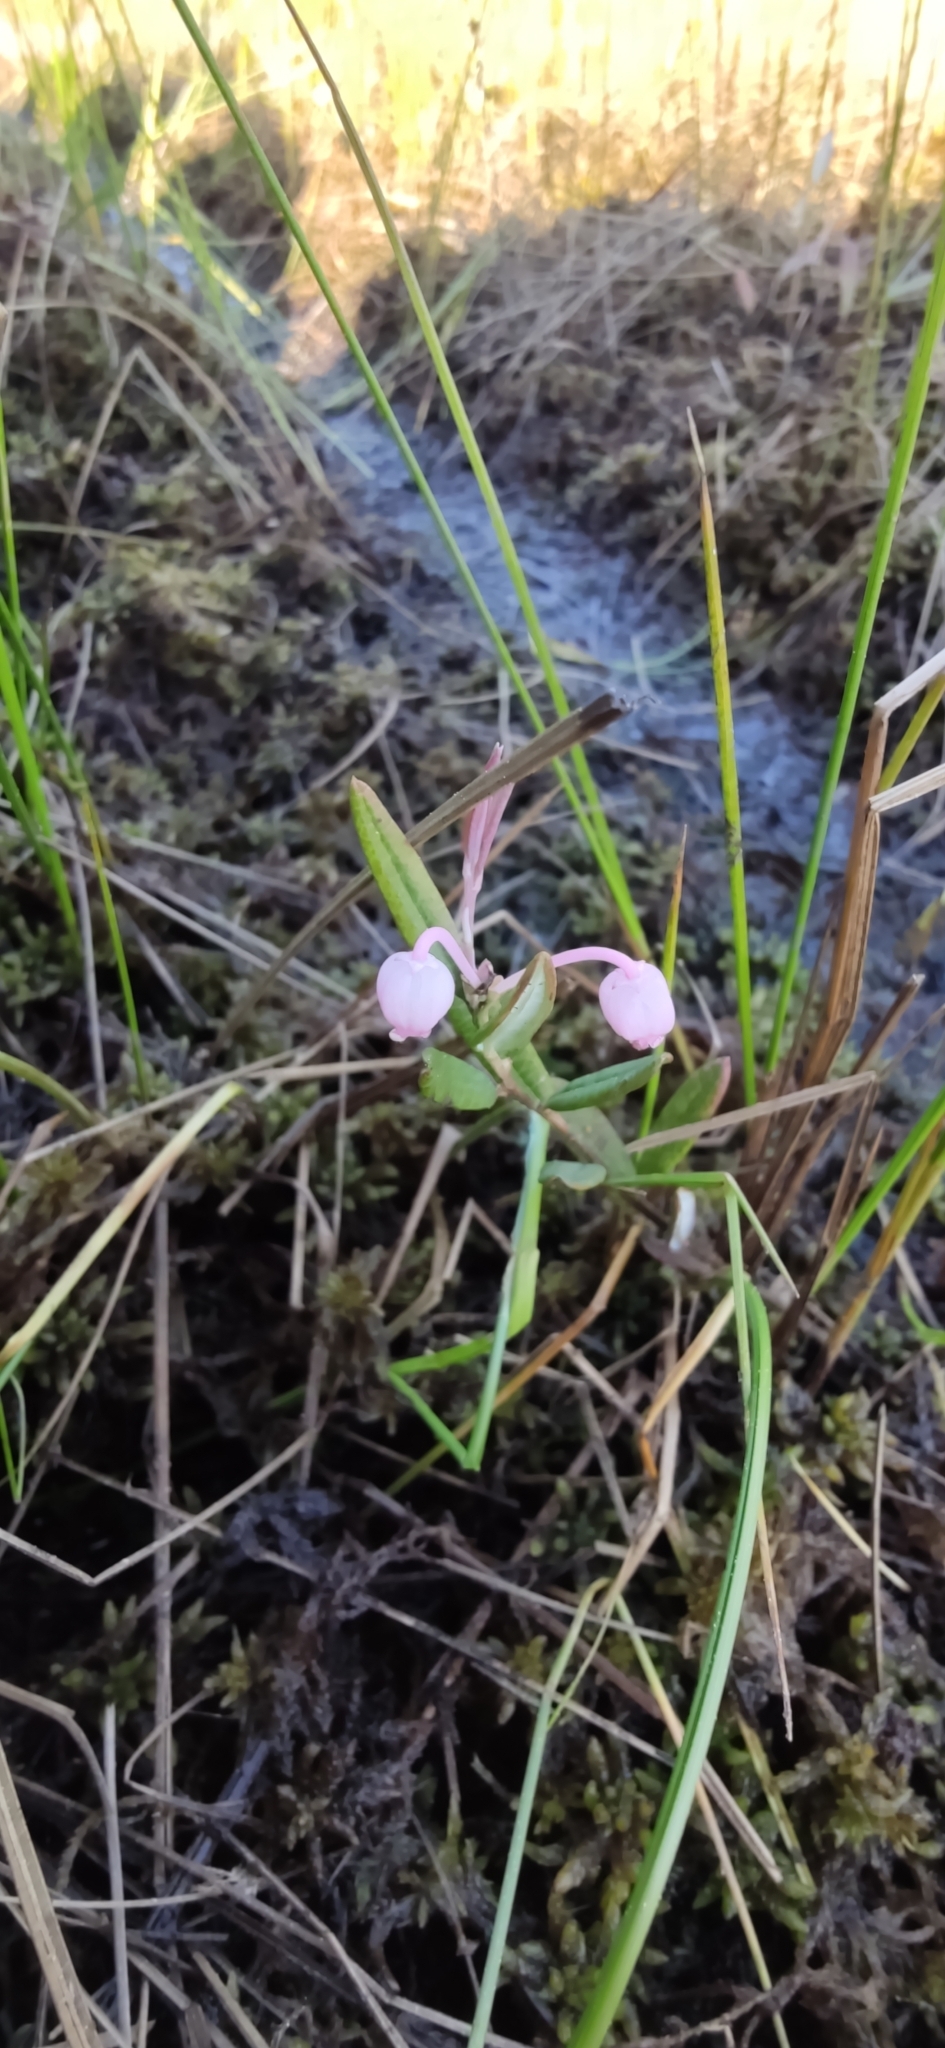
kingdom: Plantae
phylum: Tracheophyta
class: Magnoliopsida
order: Ericales
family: Ericaceae
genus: Andromeda
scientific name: Andromeda polifolia
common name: Bog-rosemary
